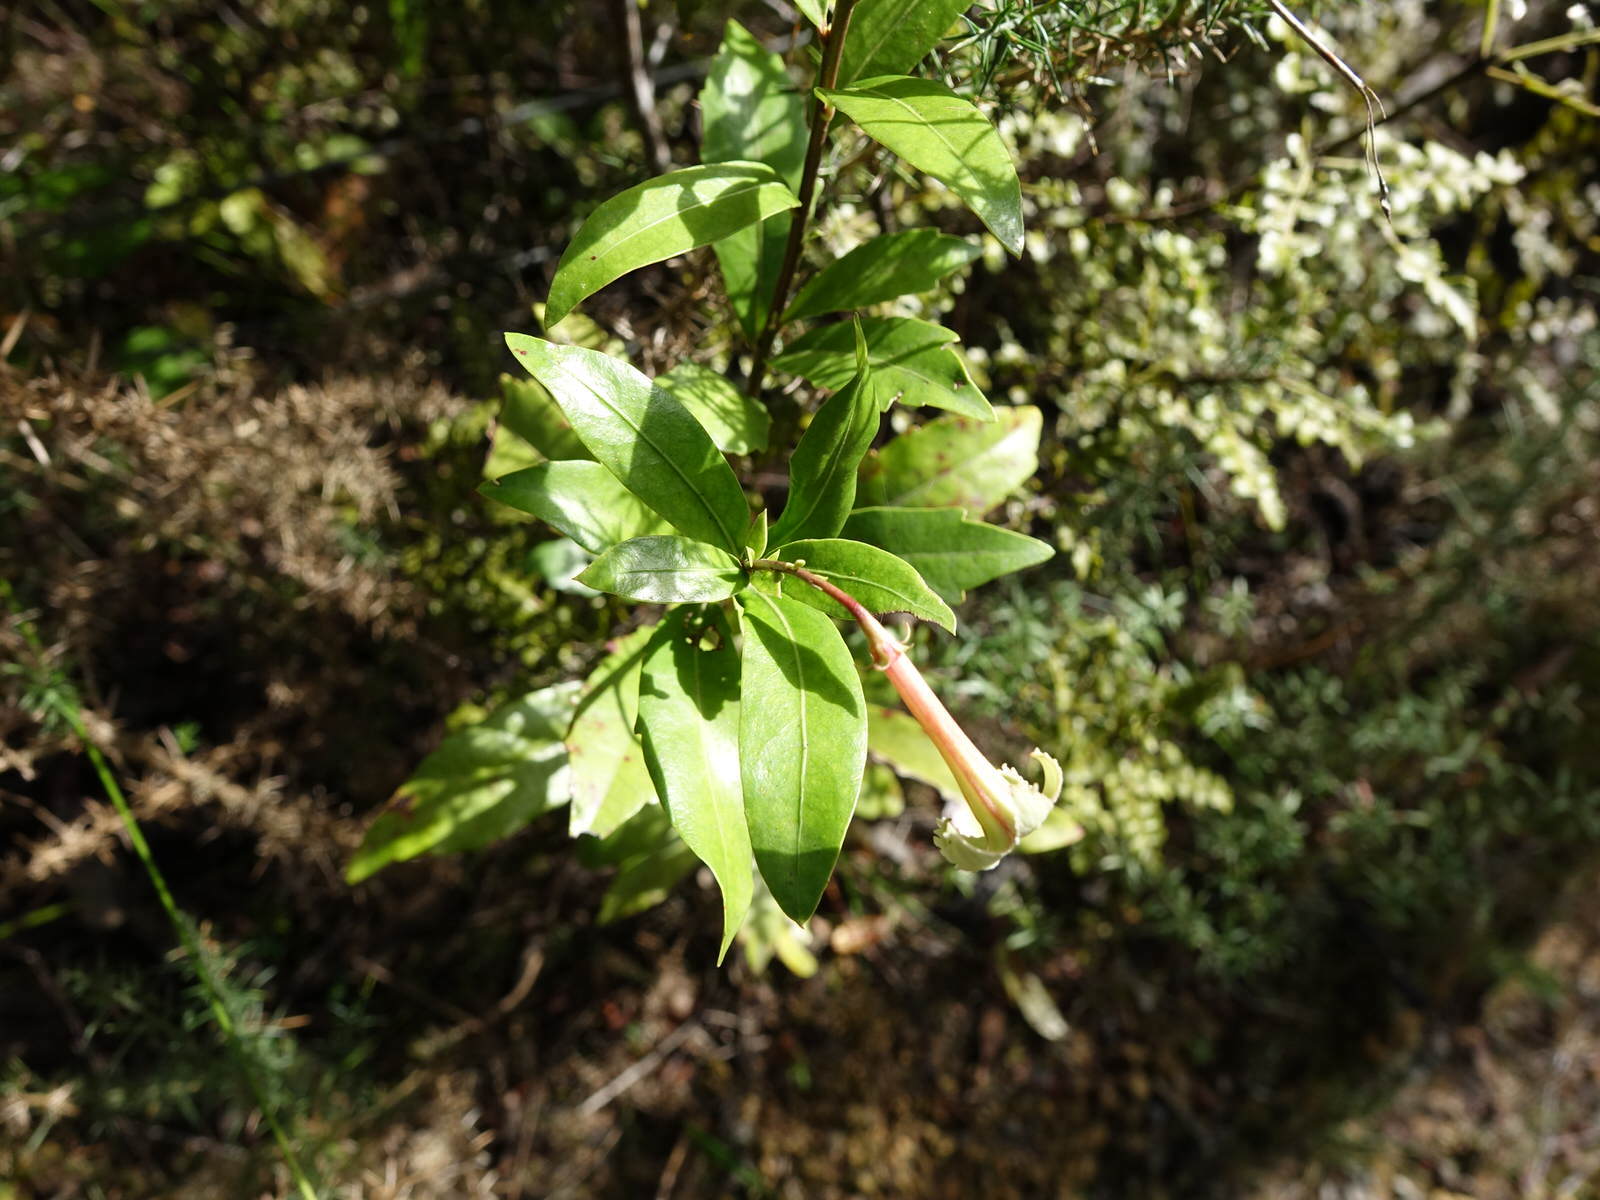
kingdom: Plantae
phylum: Tracheophyta
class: Magnoliopsida
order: Asterales
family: Alseuosmiaceae
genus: Alseuosmia
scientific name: Alseuosmia banksii
